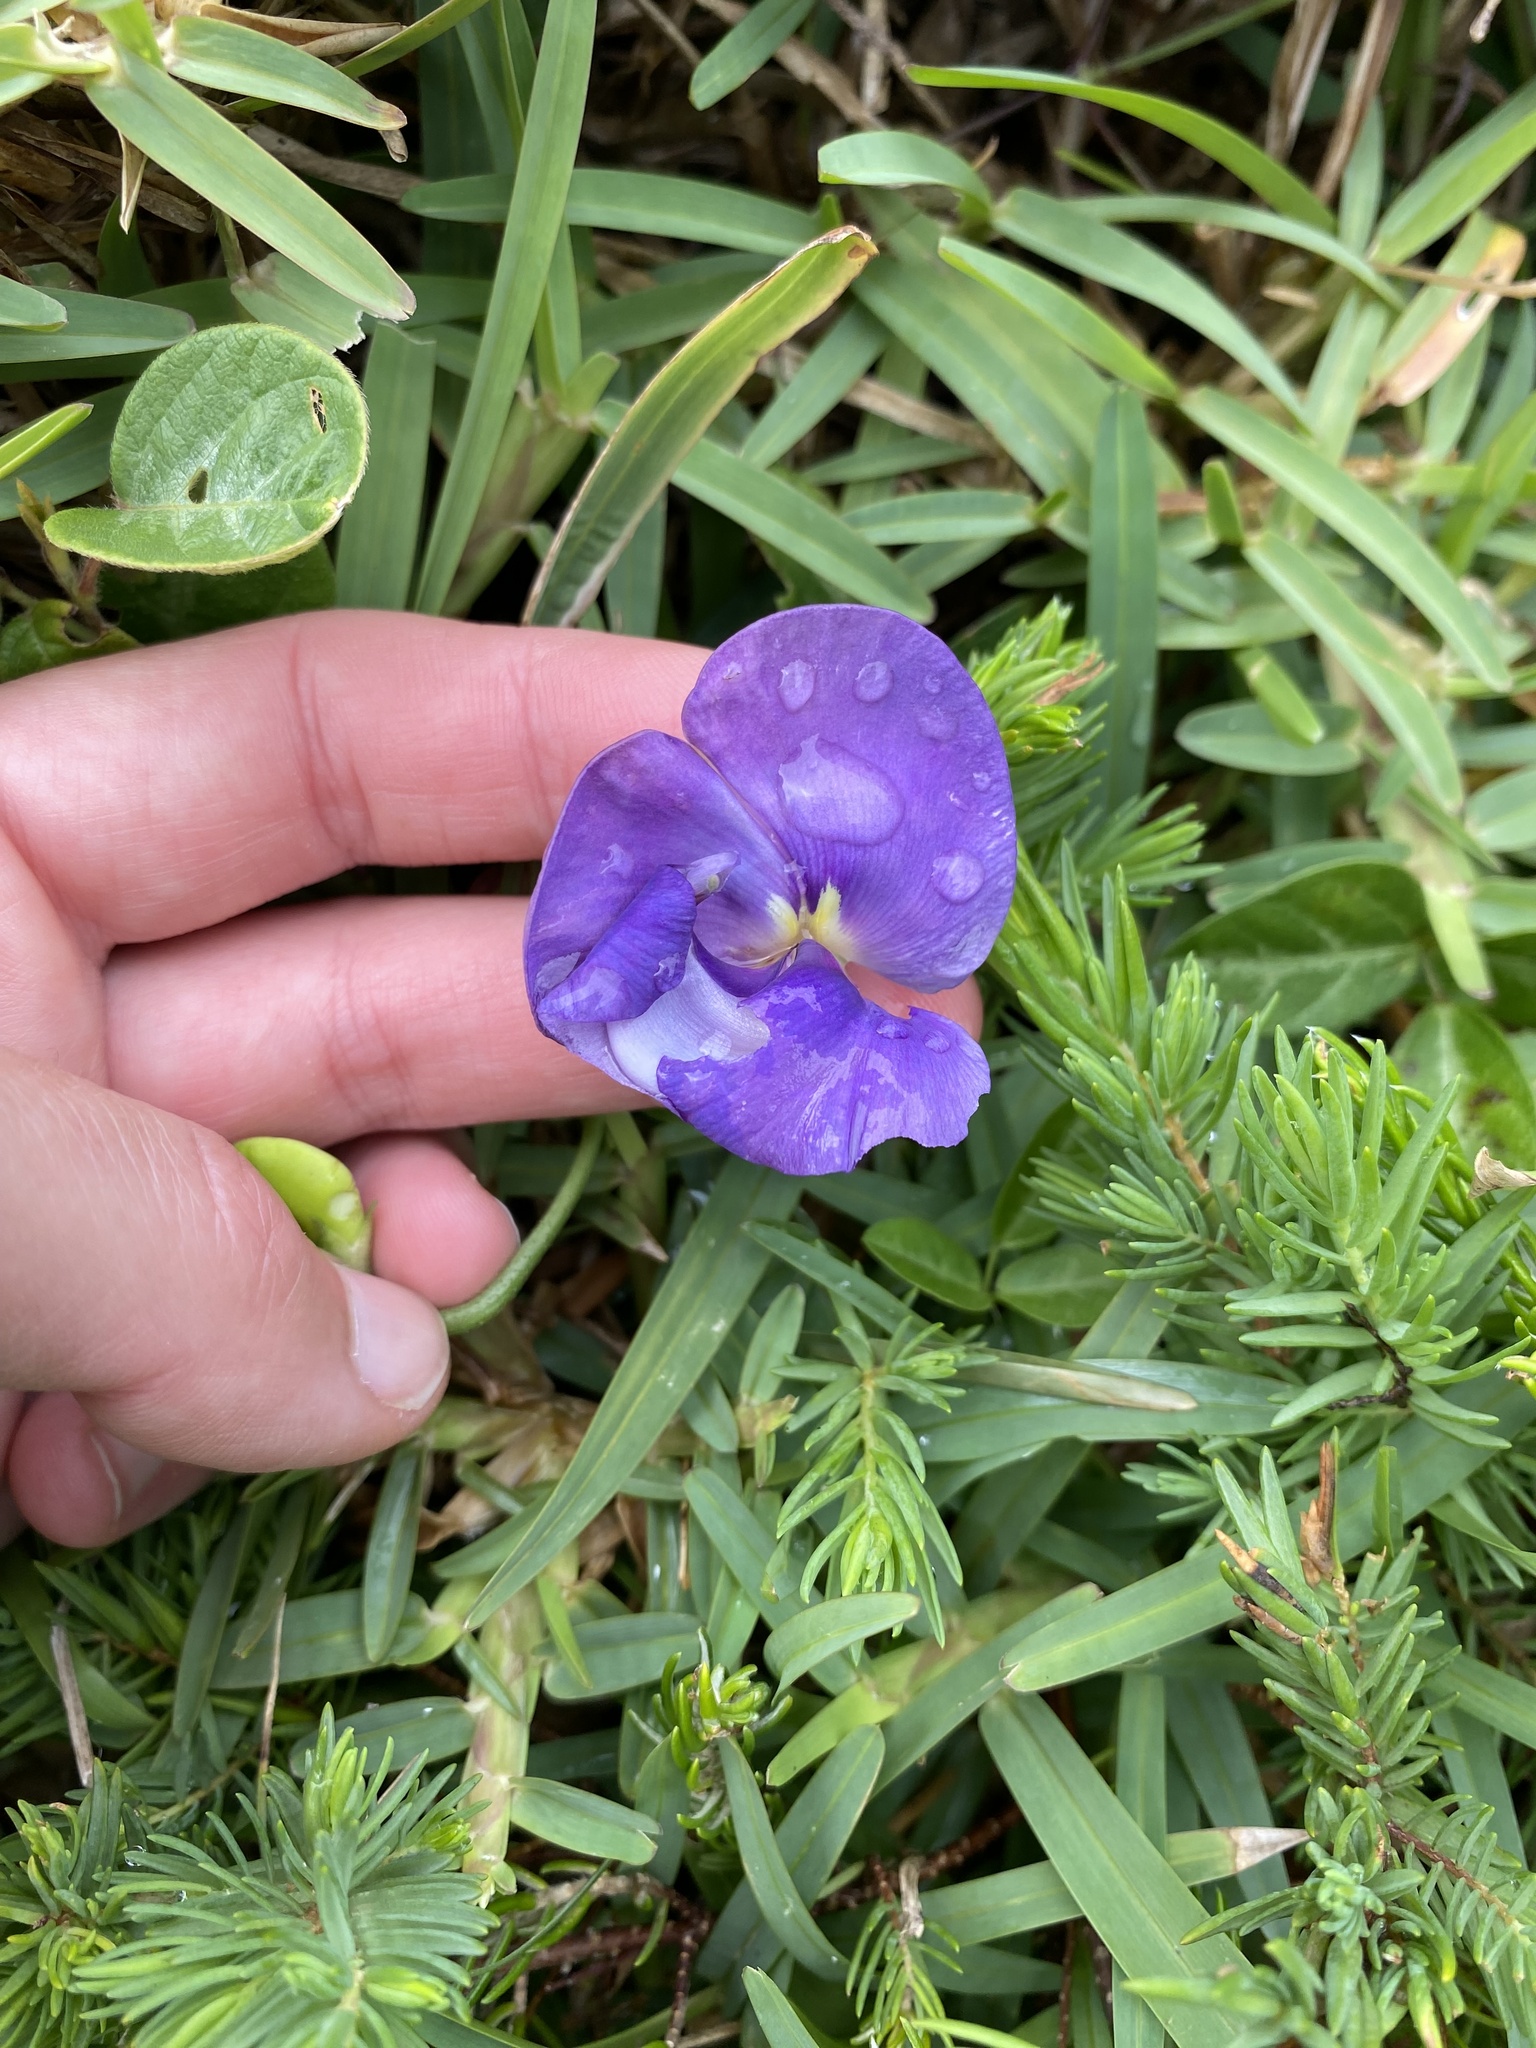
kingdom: Plantae
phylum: Tracheophyta
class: Magnoliopsida
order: Fabales
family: Fabaceae
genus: Vigna
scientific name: Vigna vexillata
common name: Zombi pea
